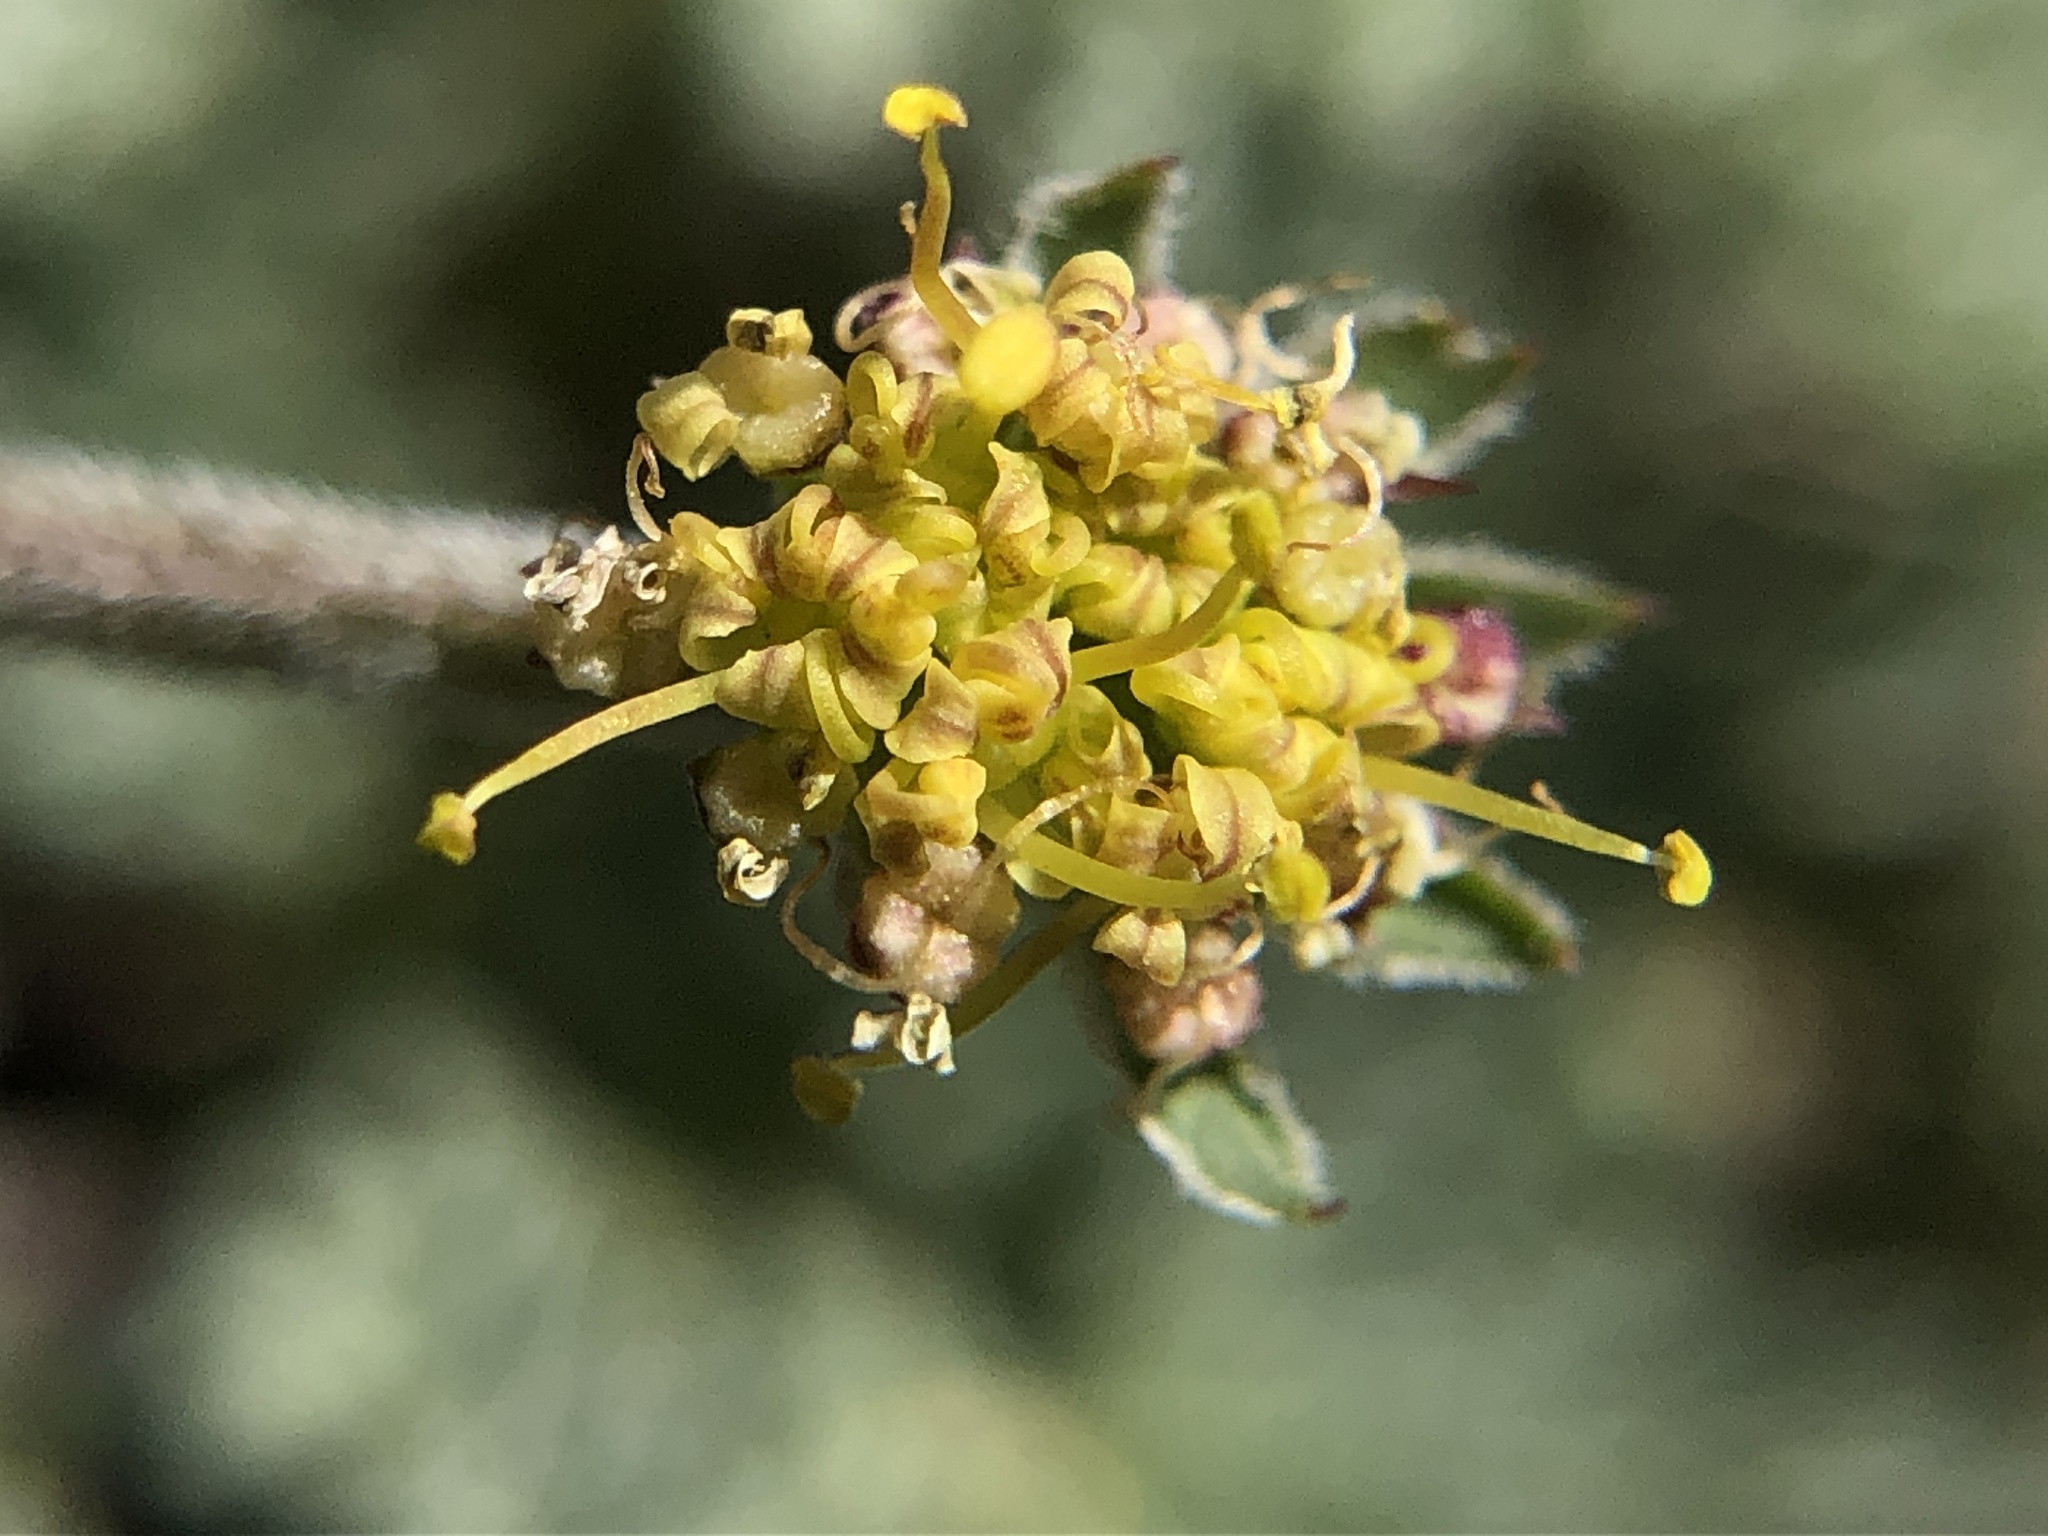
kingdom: Plantae
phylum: Tracheophyta
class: Magnoliopsida
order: Apiales
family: Apiaceae
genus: Lomatium
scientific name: Lomatium observatorium
